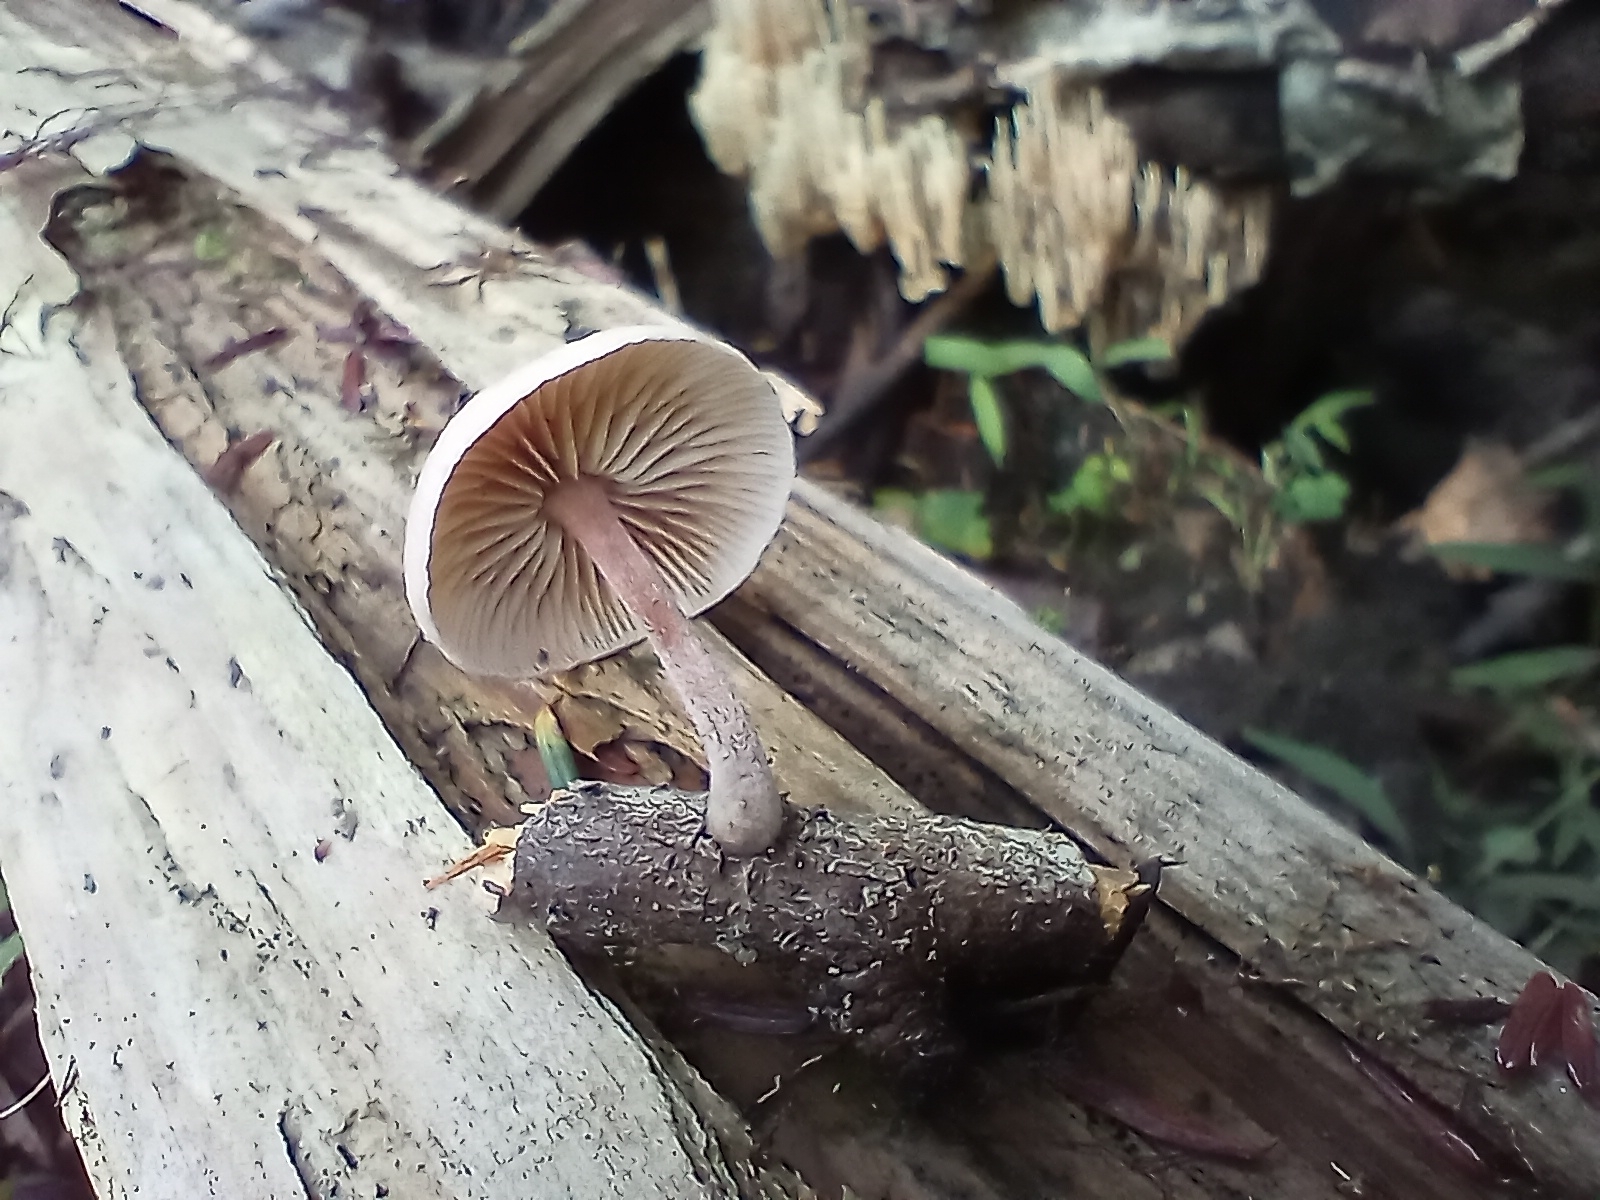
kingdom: Fungi
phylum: Basidiomycota
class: Agaricomycetes
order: Agaricales
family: Omphalotaceae
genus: Collybiopsis
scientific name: Collybiopsis dichroa
